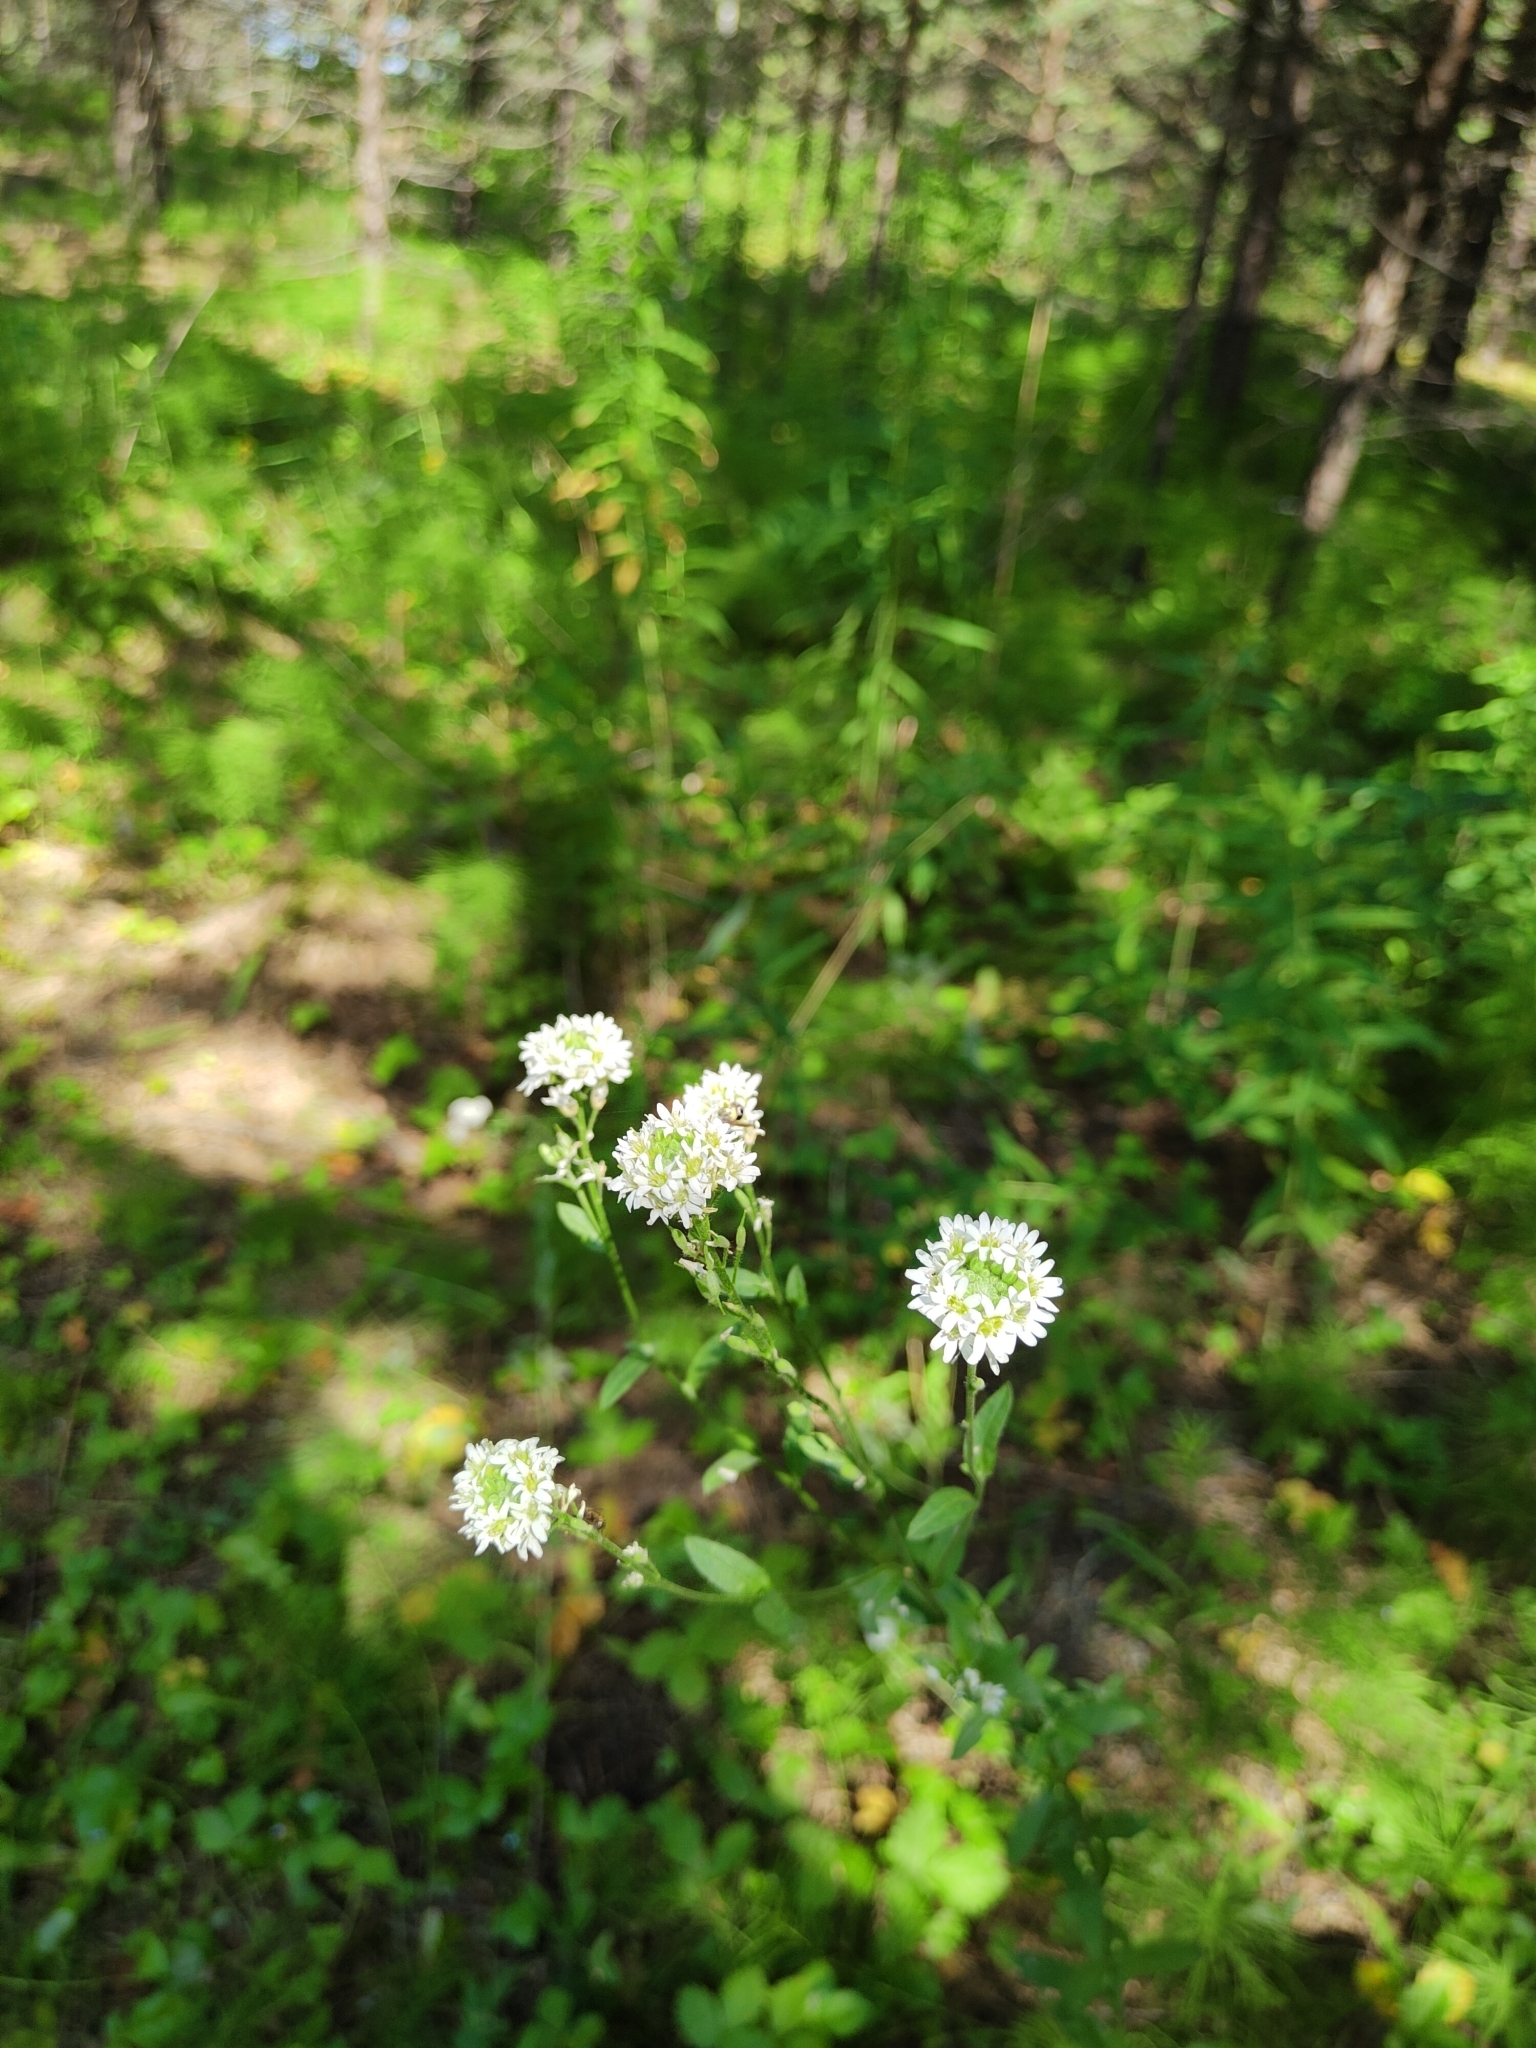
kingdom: Plantae
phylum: Tracheophyta
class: Magnoliopsida
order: Brassicales
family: Brassicaceae
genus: Berteroa
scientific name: Berteroa incana
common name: Hoary alison
